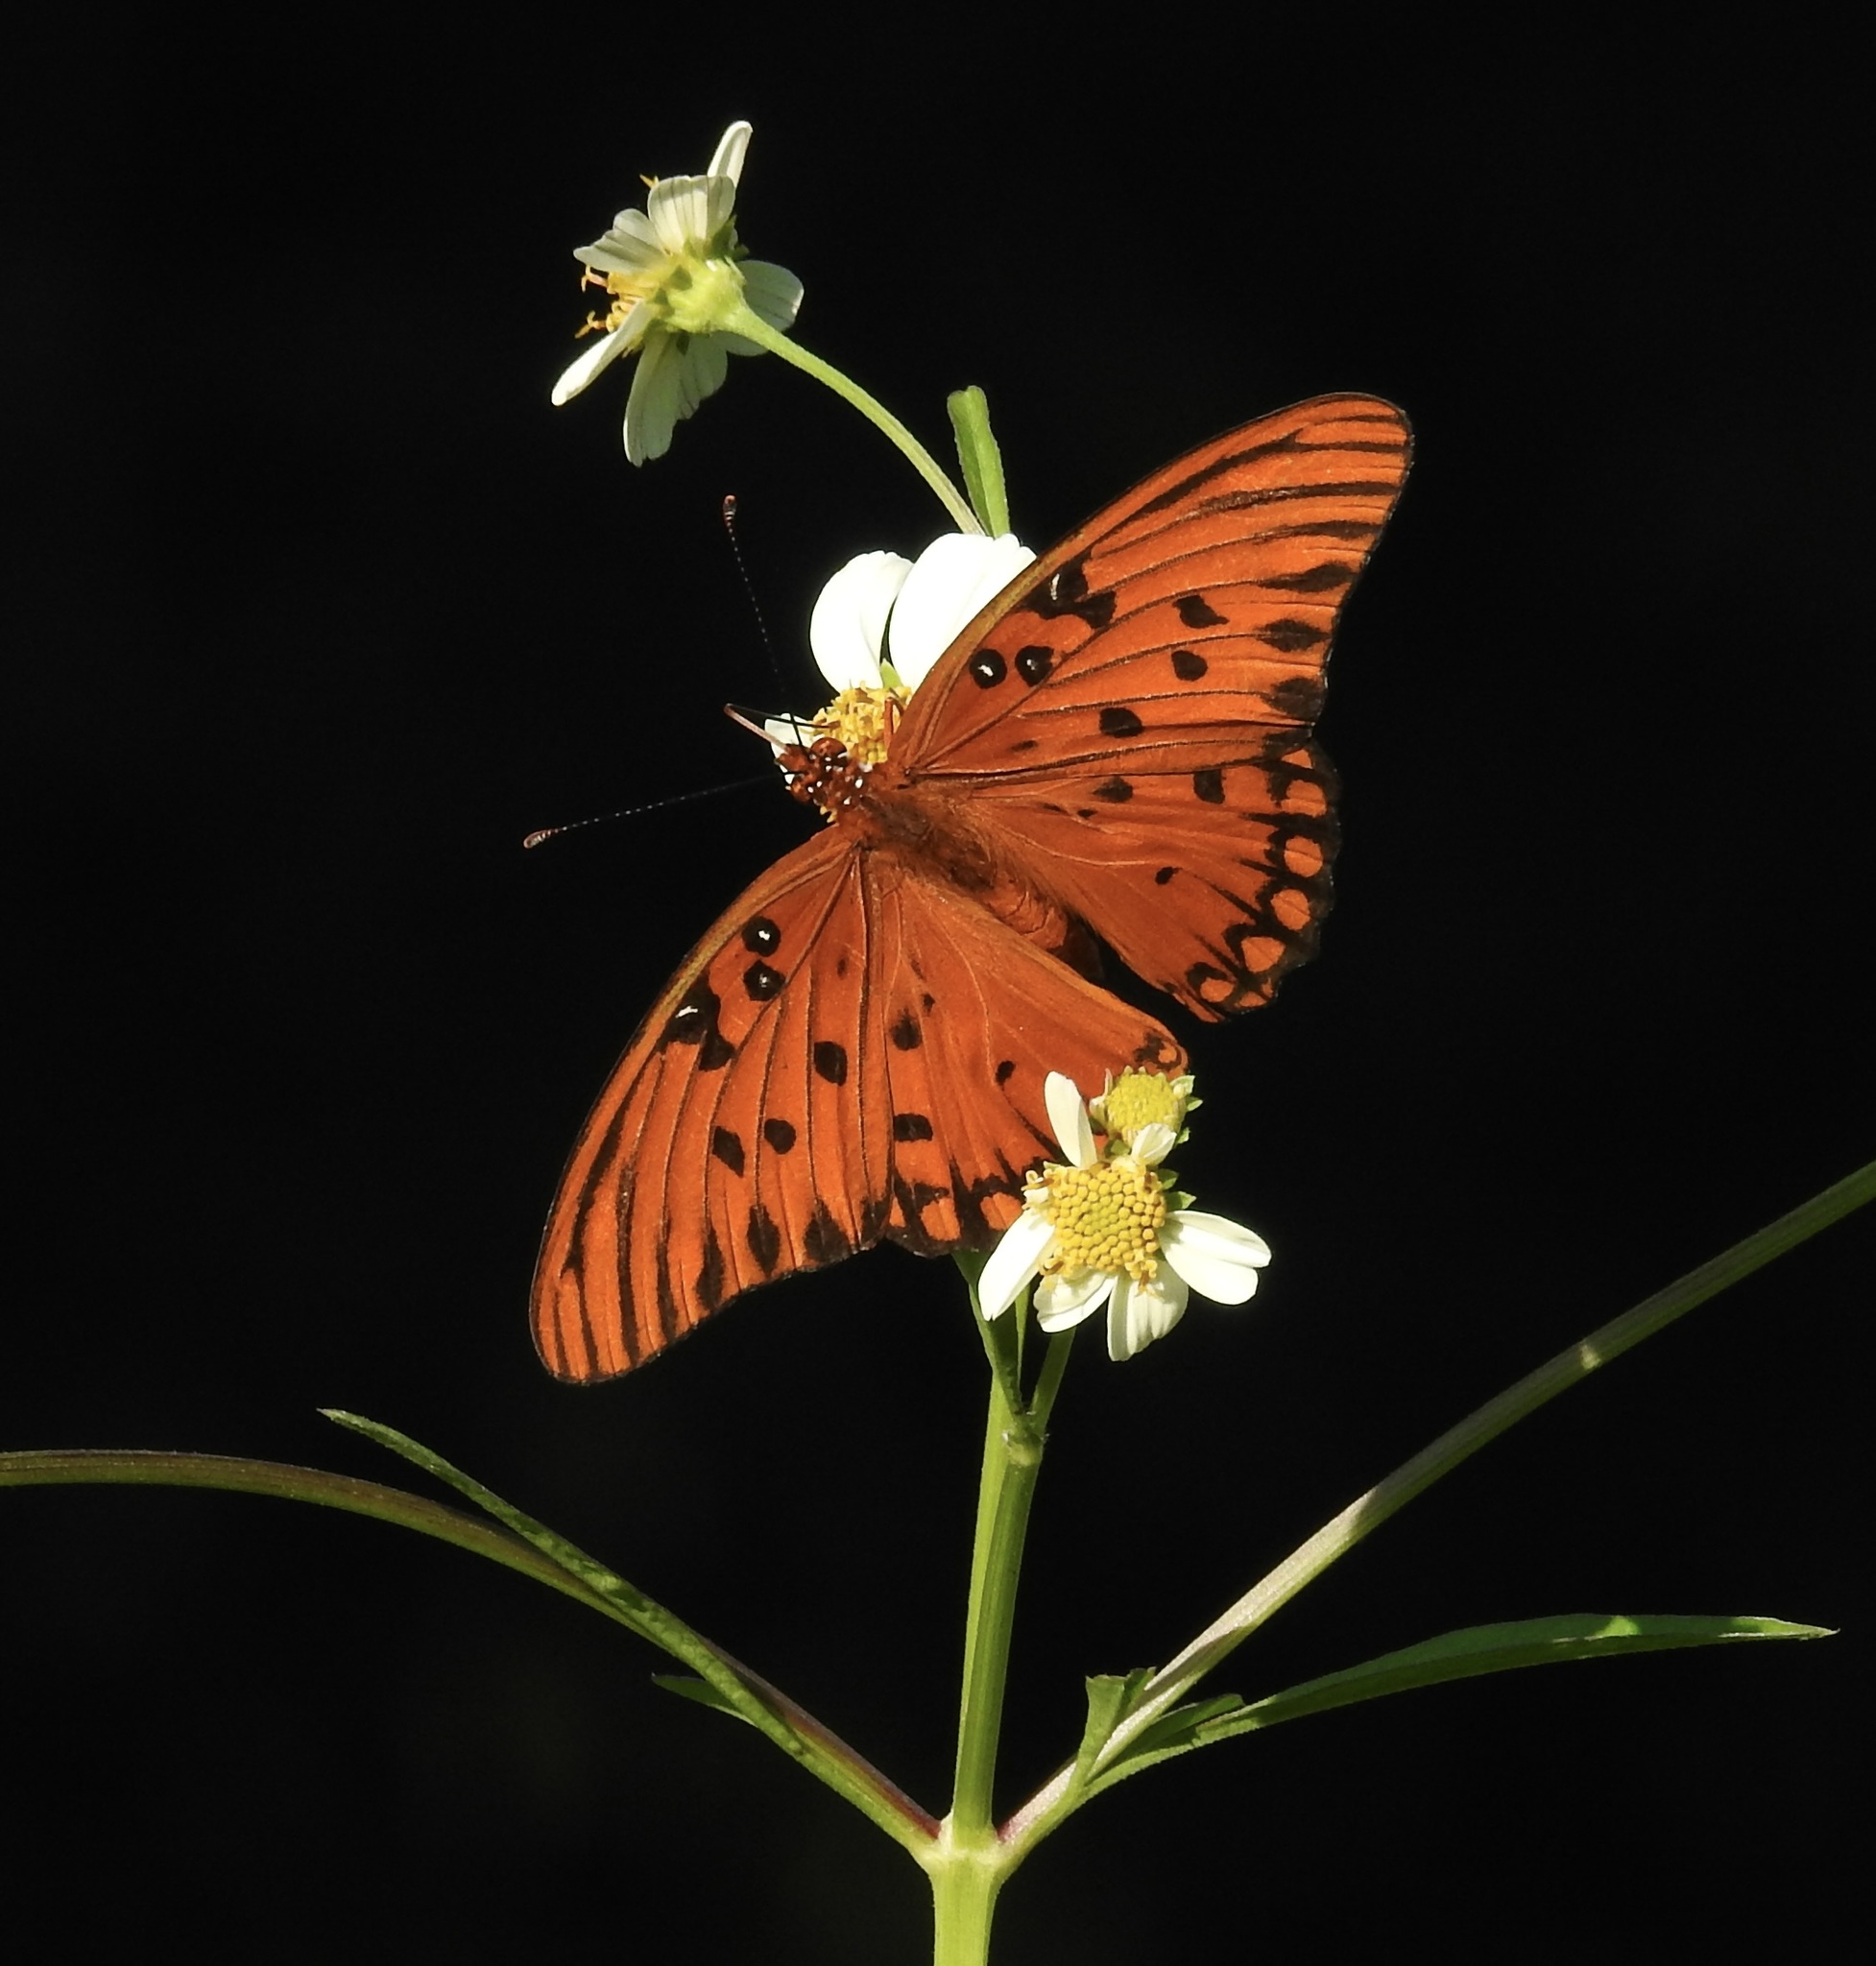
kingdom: Animalia
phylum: Arthropoda
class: Insecta
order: Lepidoptera
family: Nymphalidae
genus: Dione
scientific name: Dione vanillae
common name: Gulf fritillary
